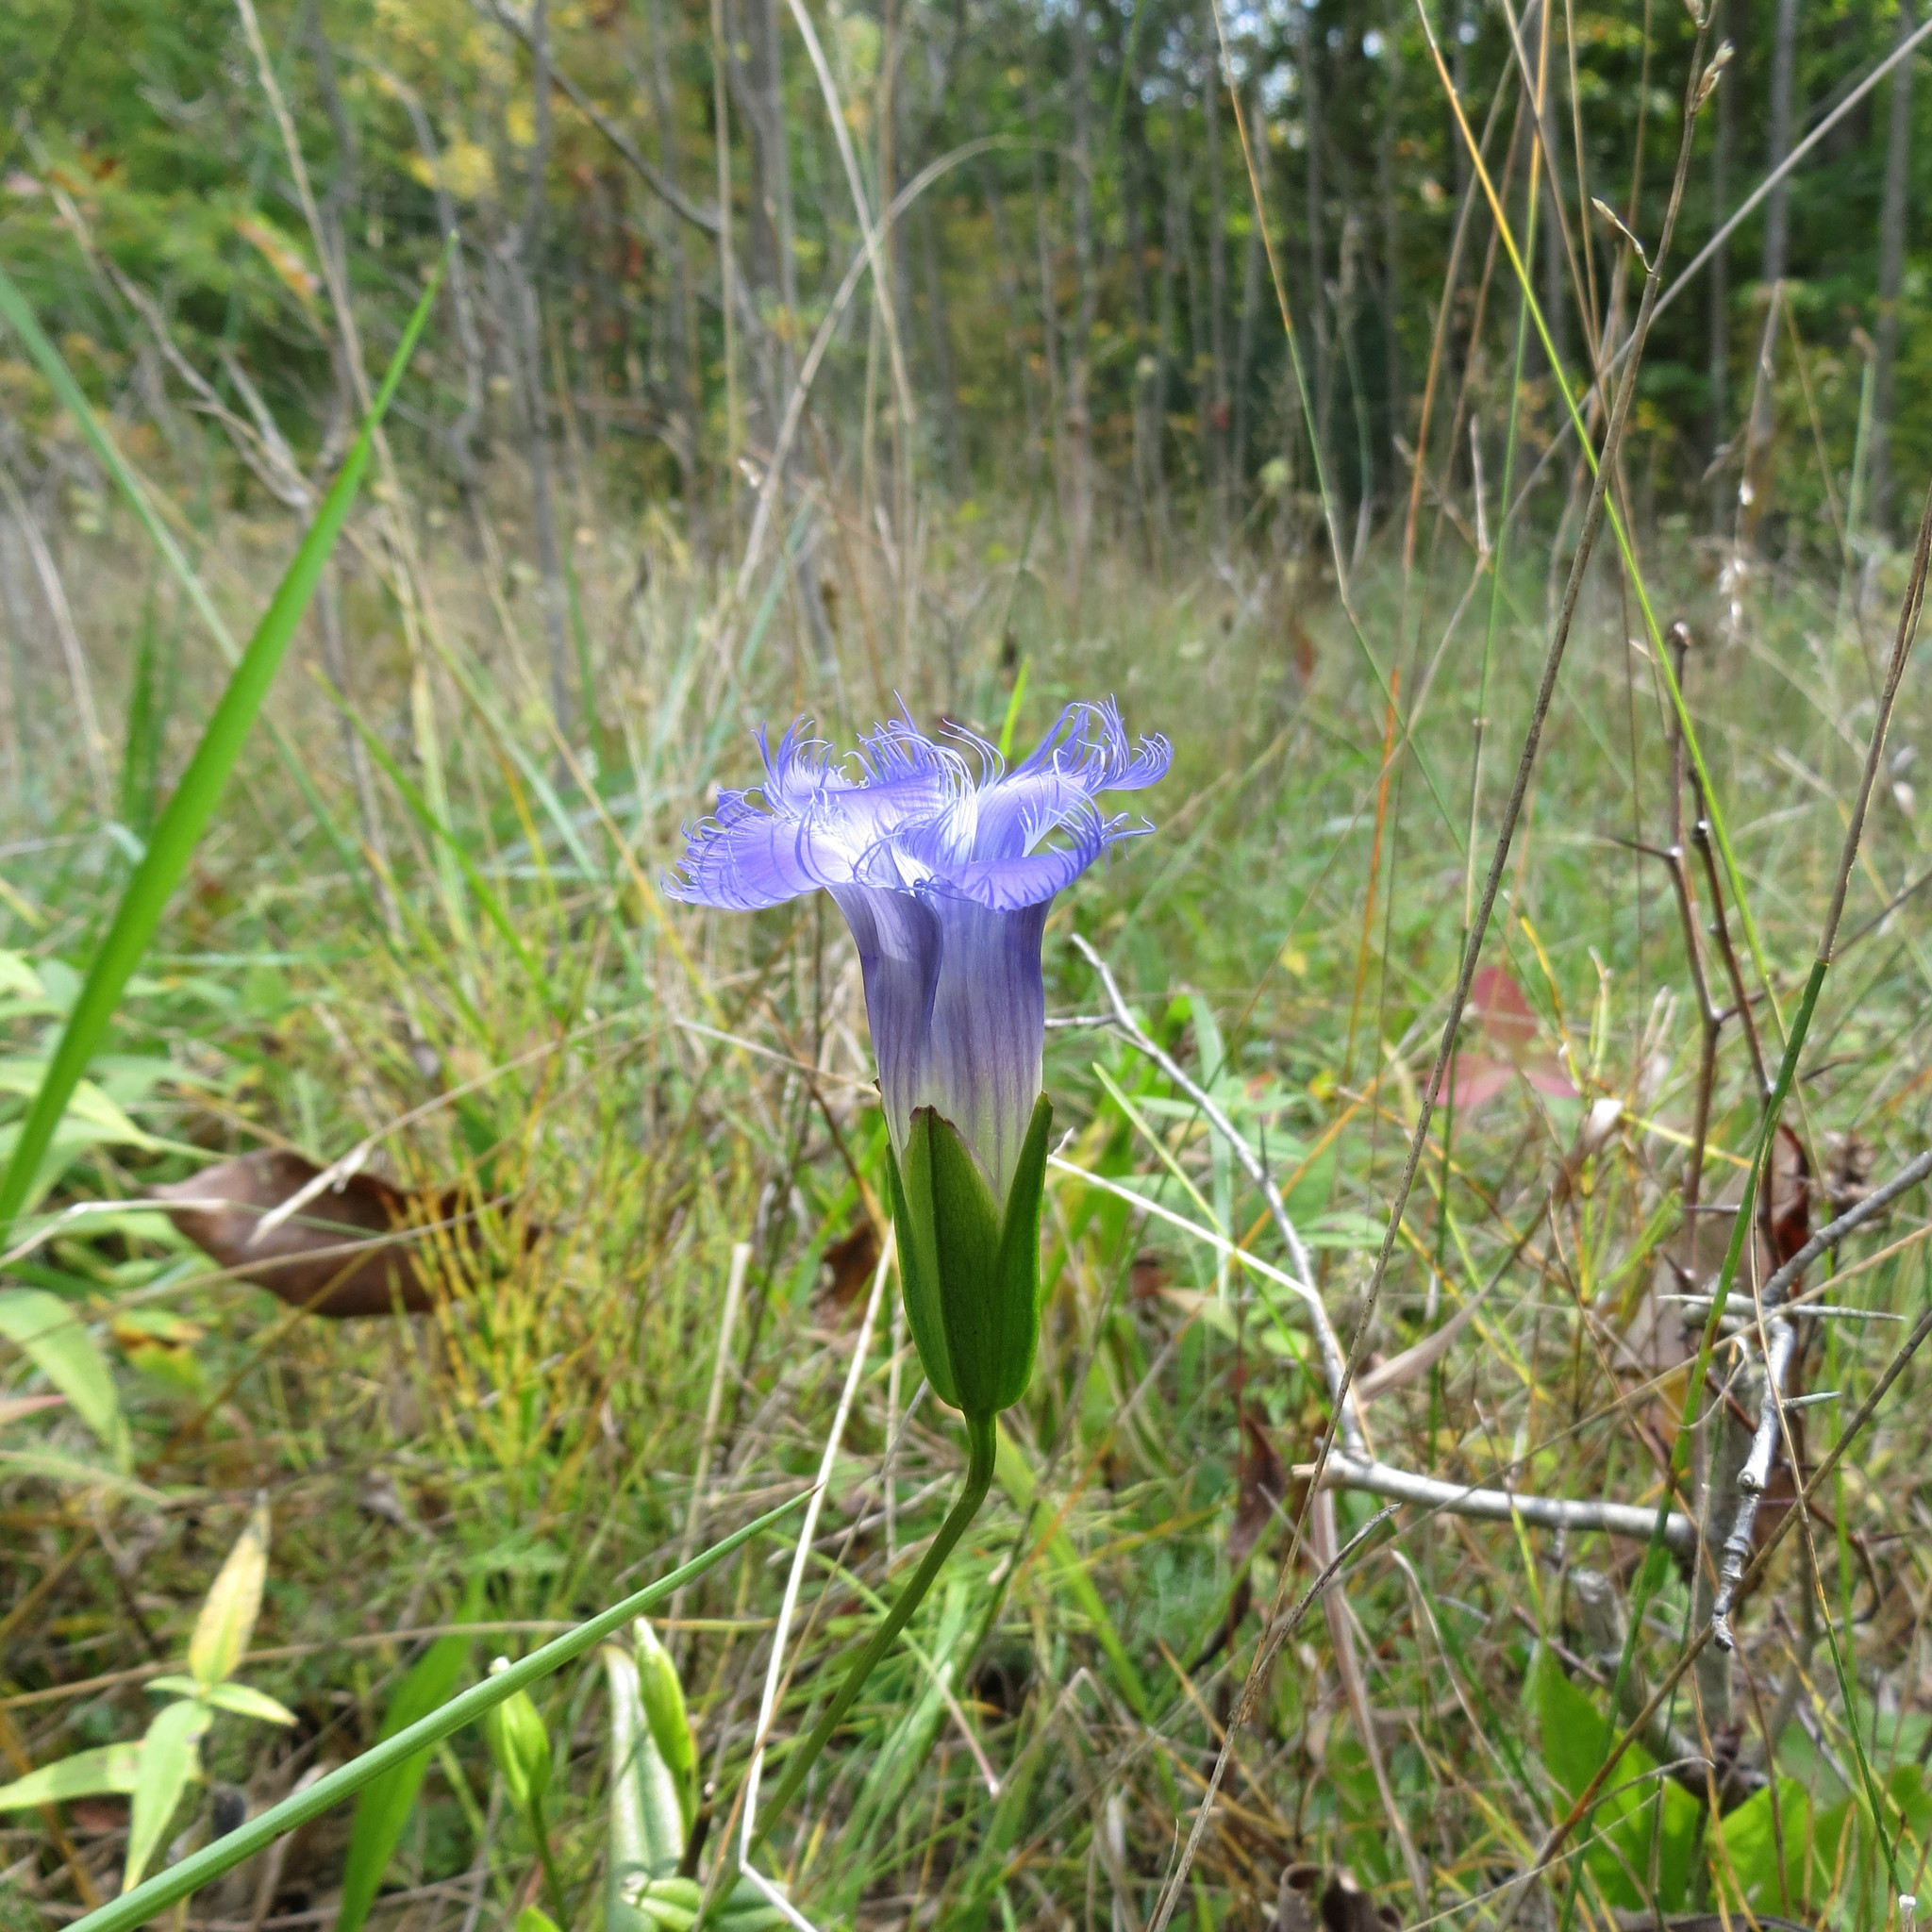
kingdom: Plantae
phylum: Tracheophyta
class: Magnoliopsida
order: Gentianales
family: Gentianaceae
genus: Gentianopsis
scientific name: Gentianopsis crinita
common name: Fringed-gentian
